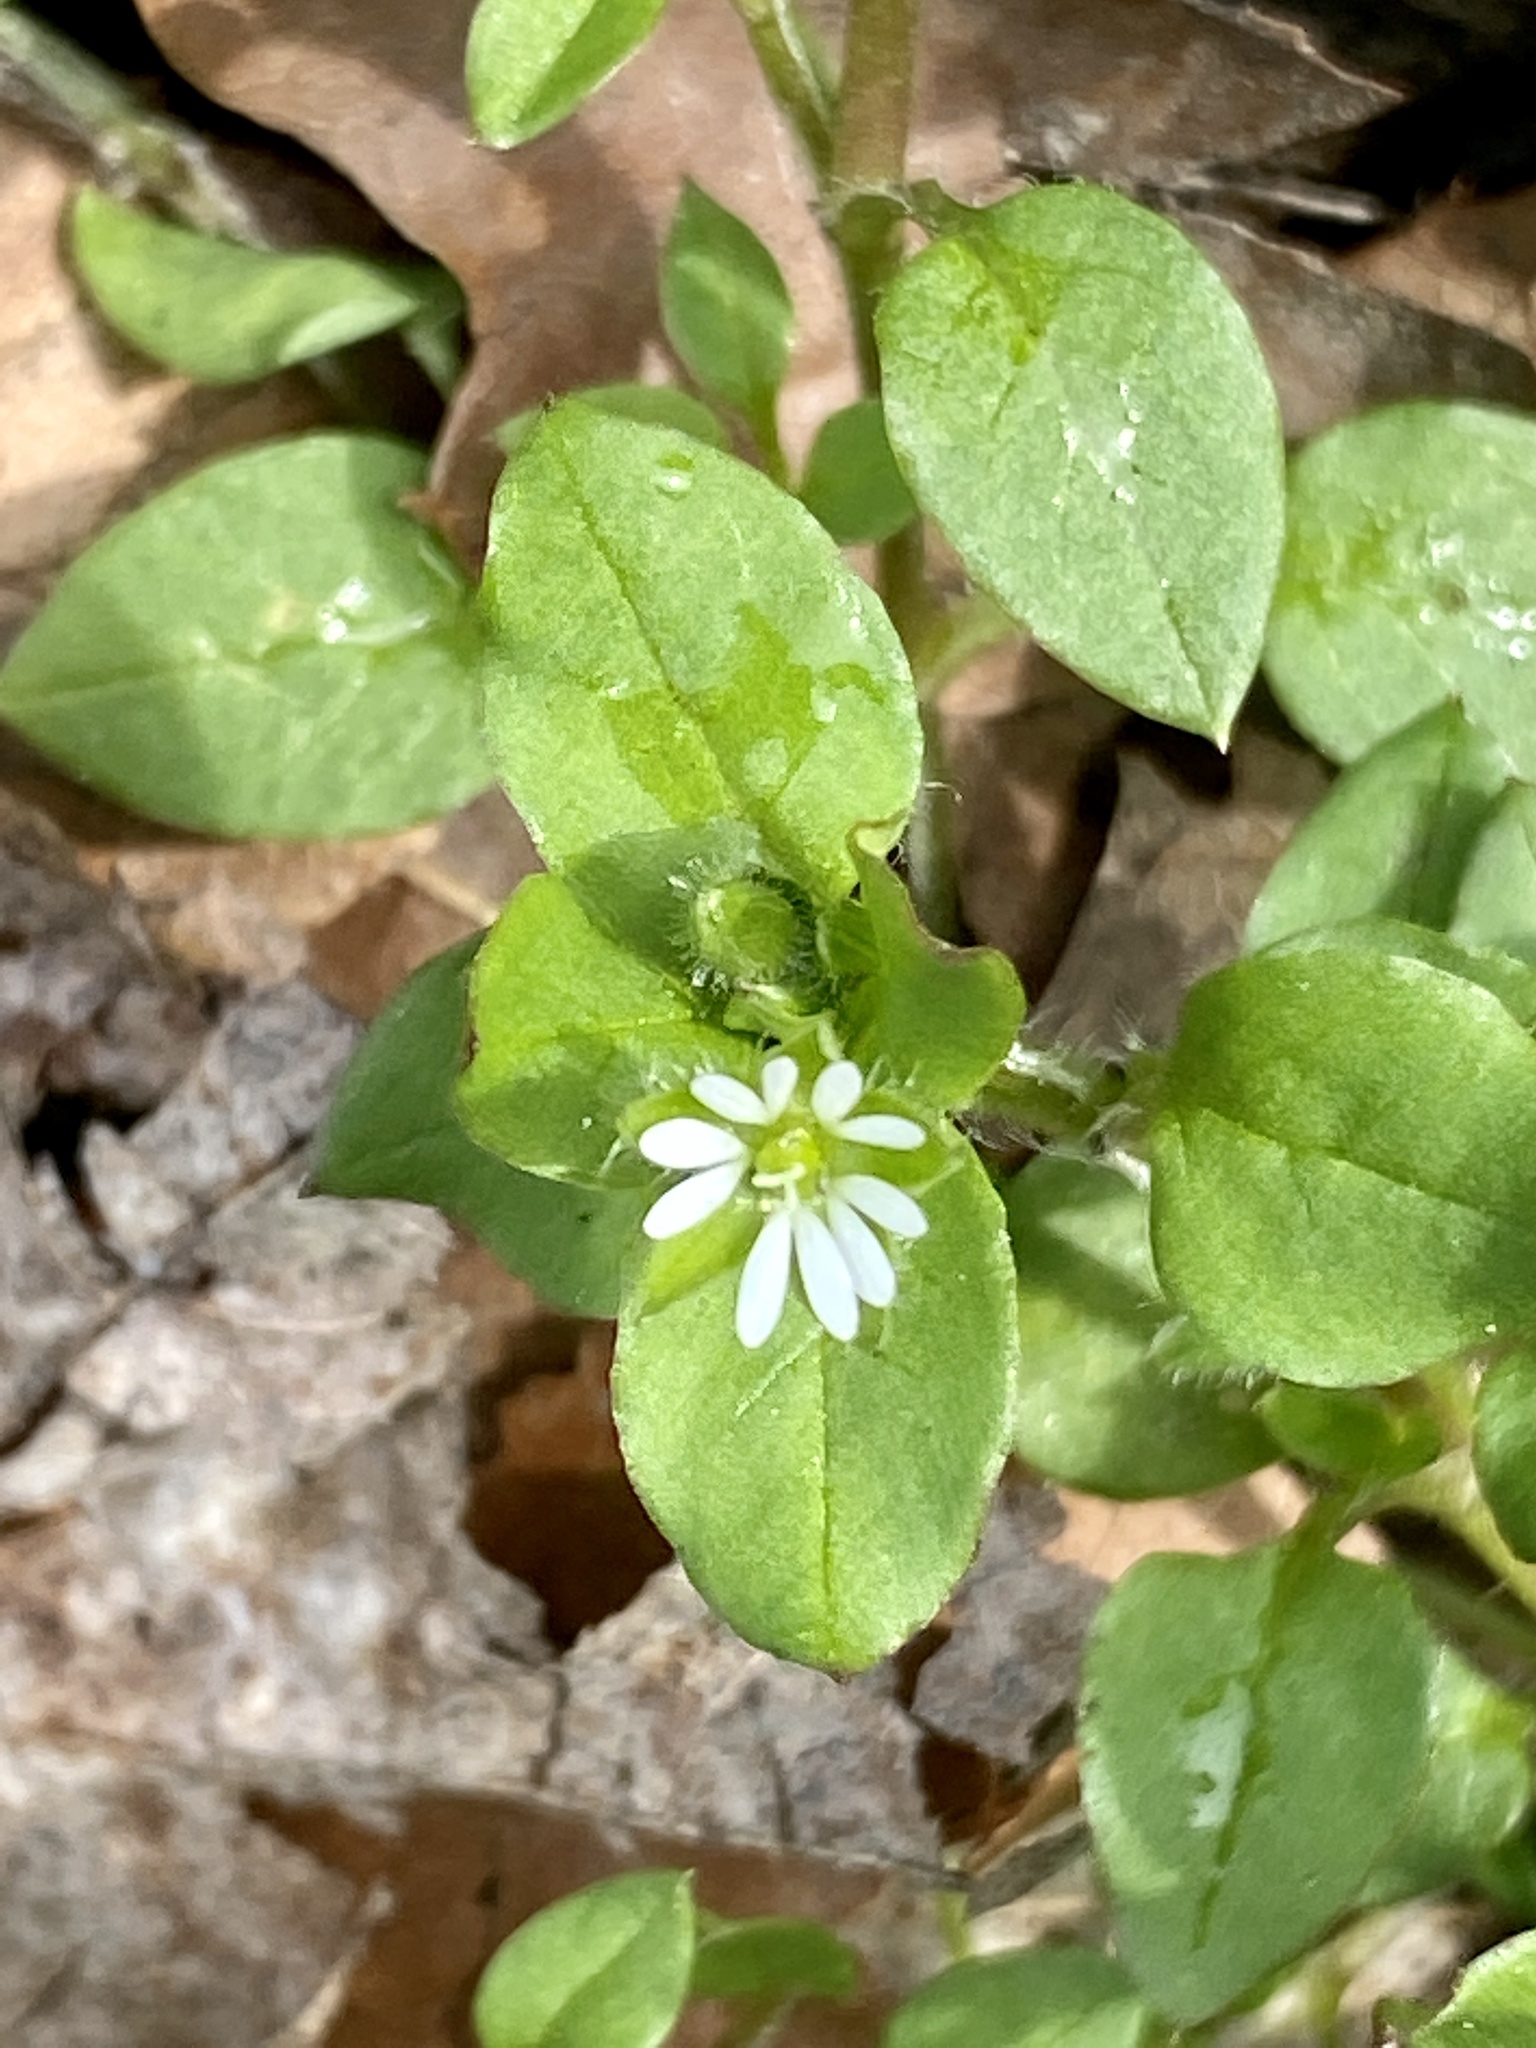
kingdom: Plantae
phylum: Tracheophyta
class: Magnoliopsida
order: Caryophyllales
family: Caryophyllaceae
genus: Stellaria
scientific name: Stellaria media
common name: Common chickweed
